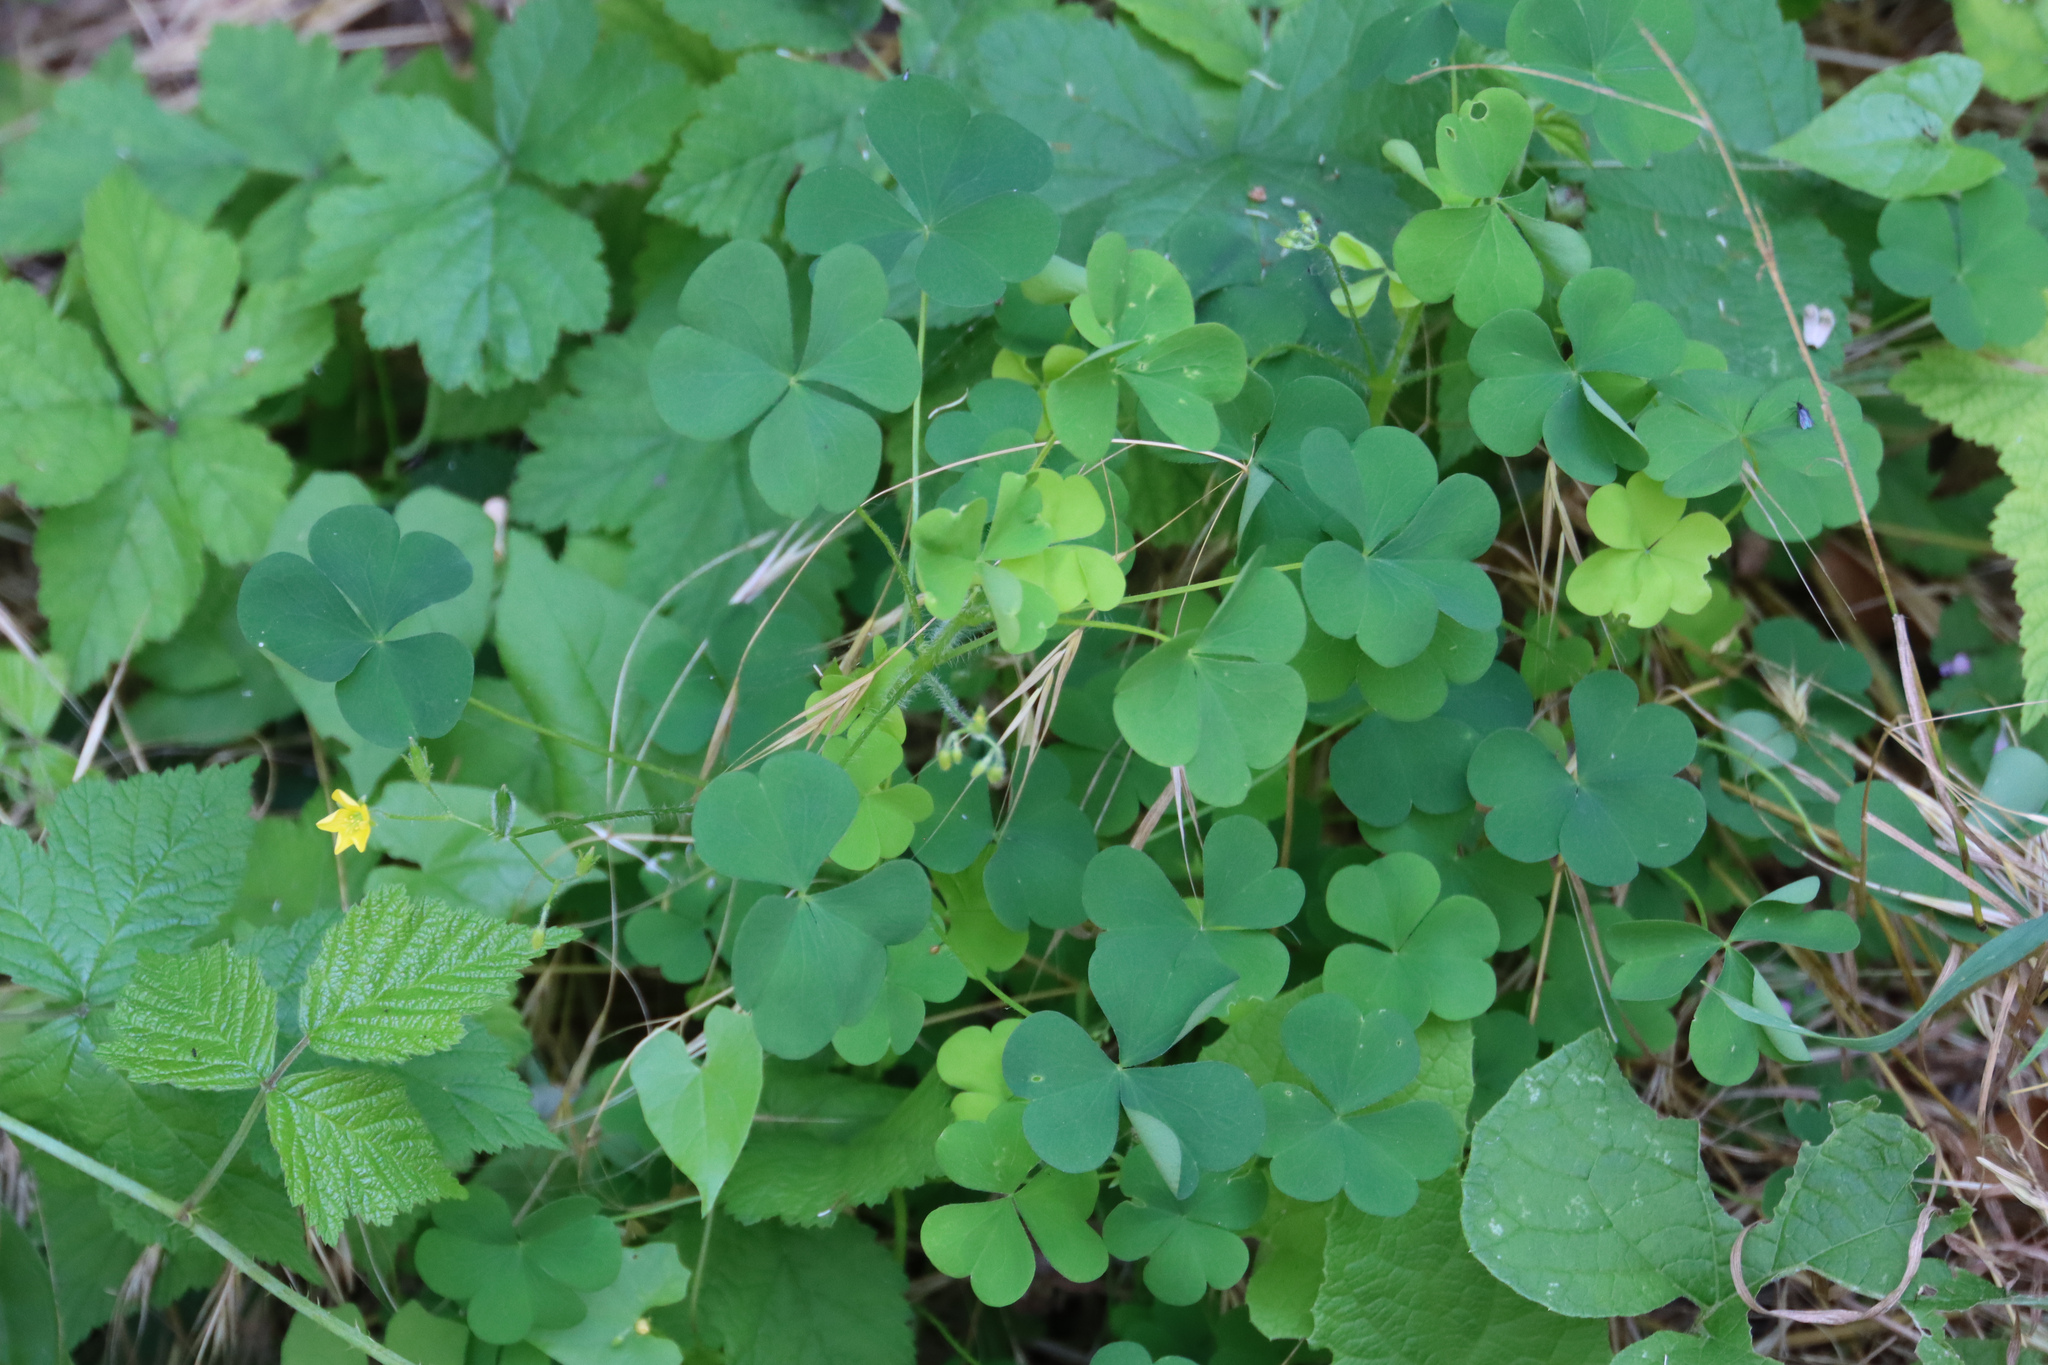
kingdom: Plantae
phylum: Tracheophyta
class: Magnoliopsida
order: Oxalidales
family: Oxalidaceae
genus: Oxalis
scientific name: Oxalis stricta
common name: Upright yellow-sorrel
